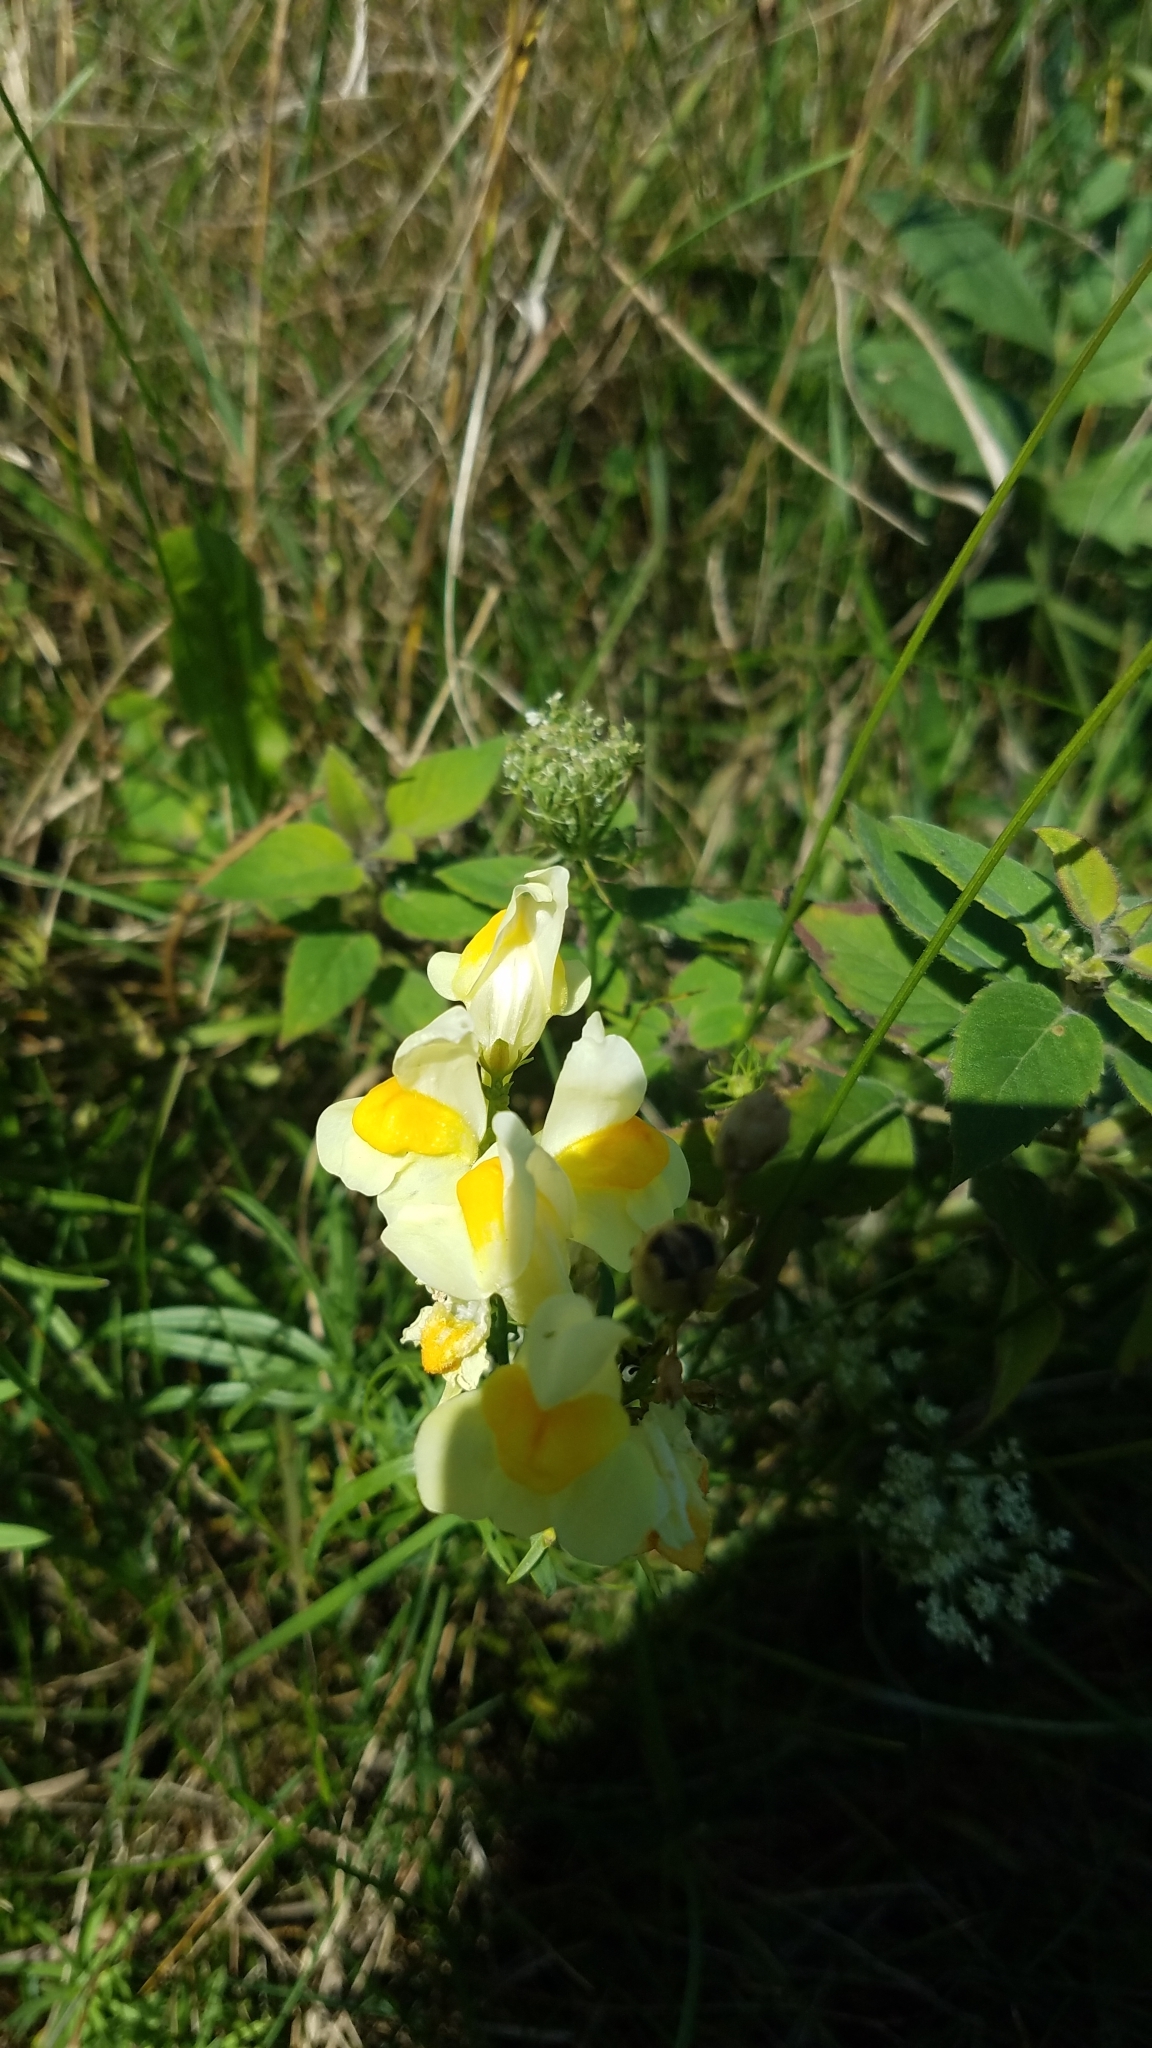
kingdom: Plantae
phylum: Tracheophyta
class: Magnoliopsida
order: Lamiales
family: Plantaginaceae
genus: Linaria
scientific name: Linaria vulgaris
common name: Butter and eggs
